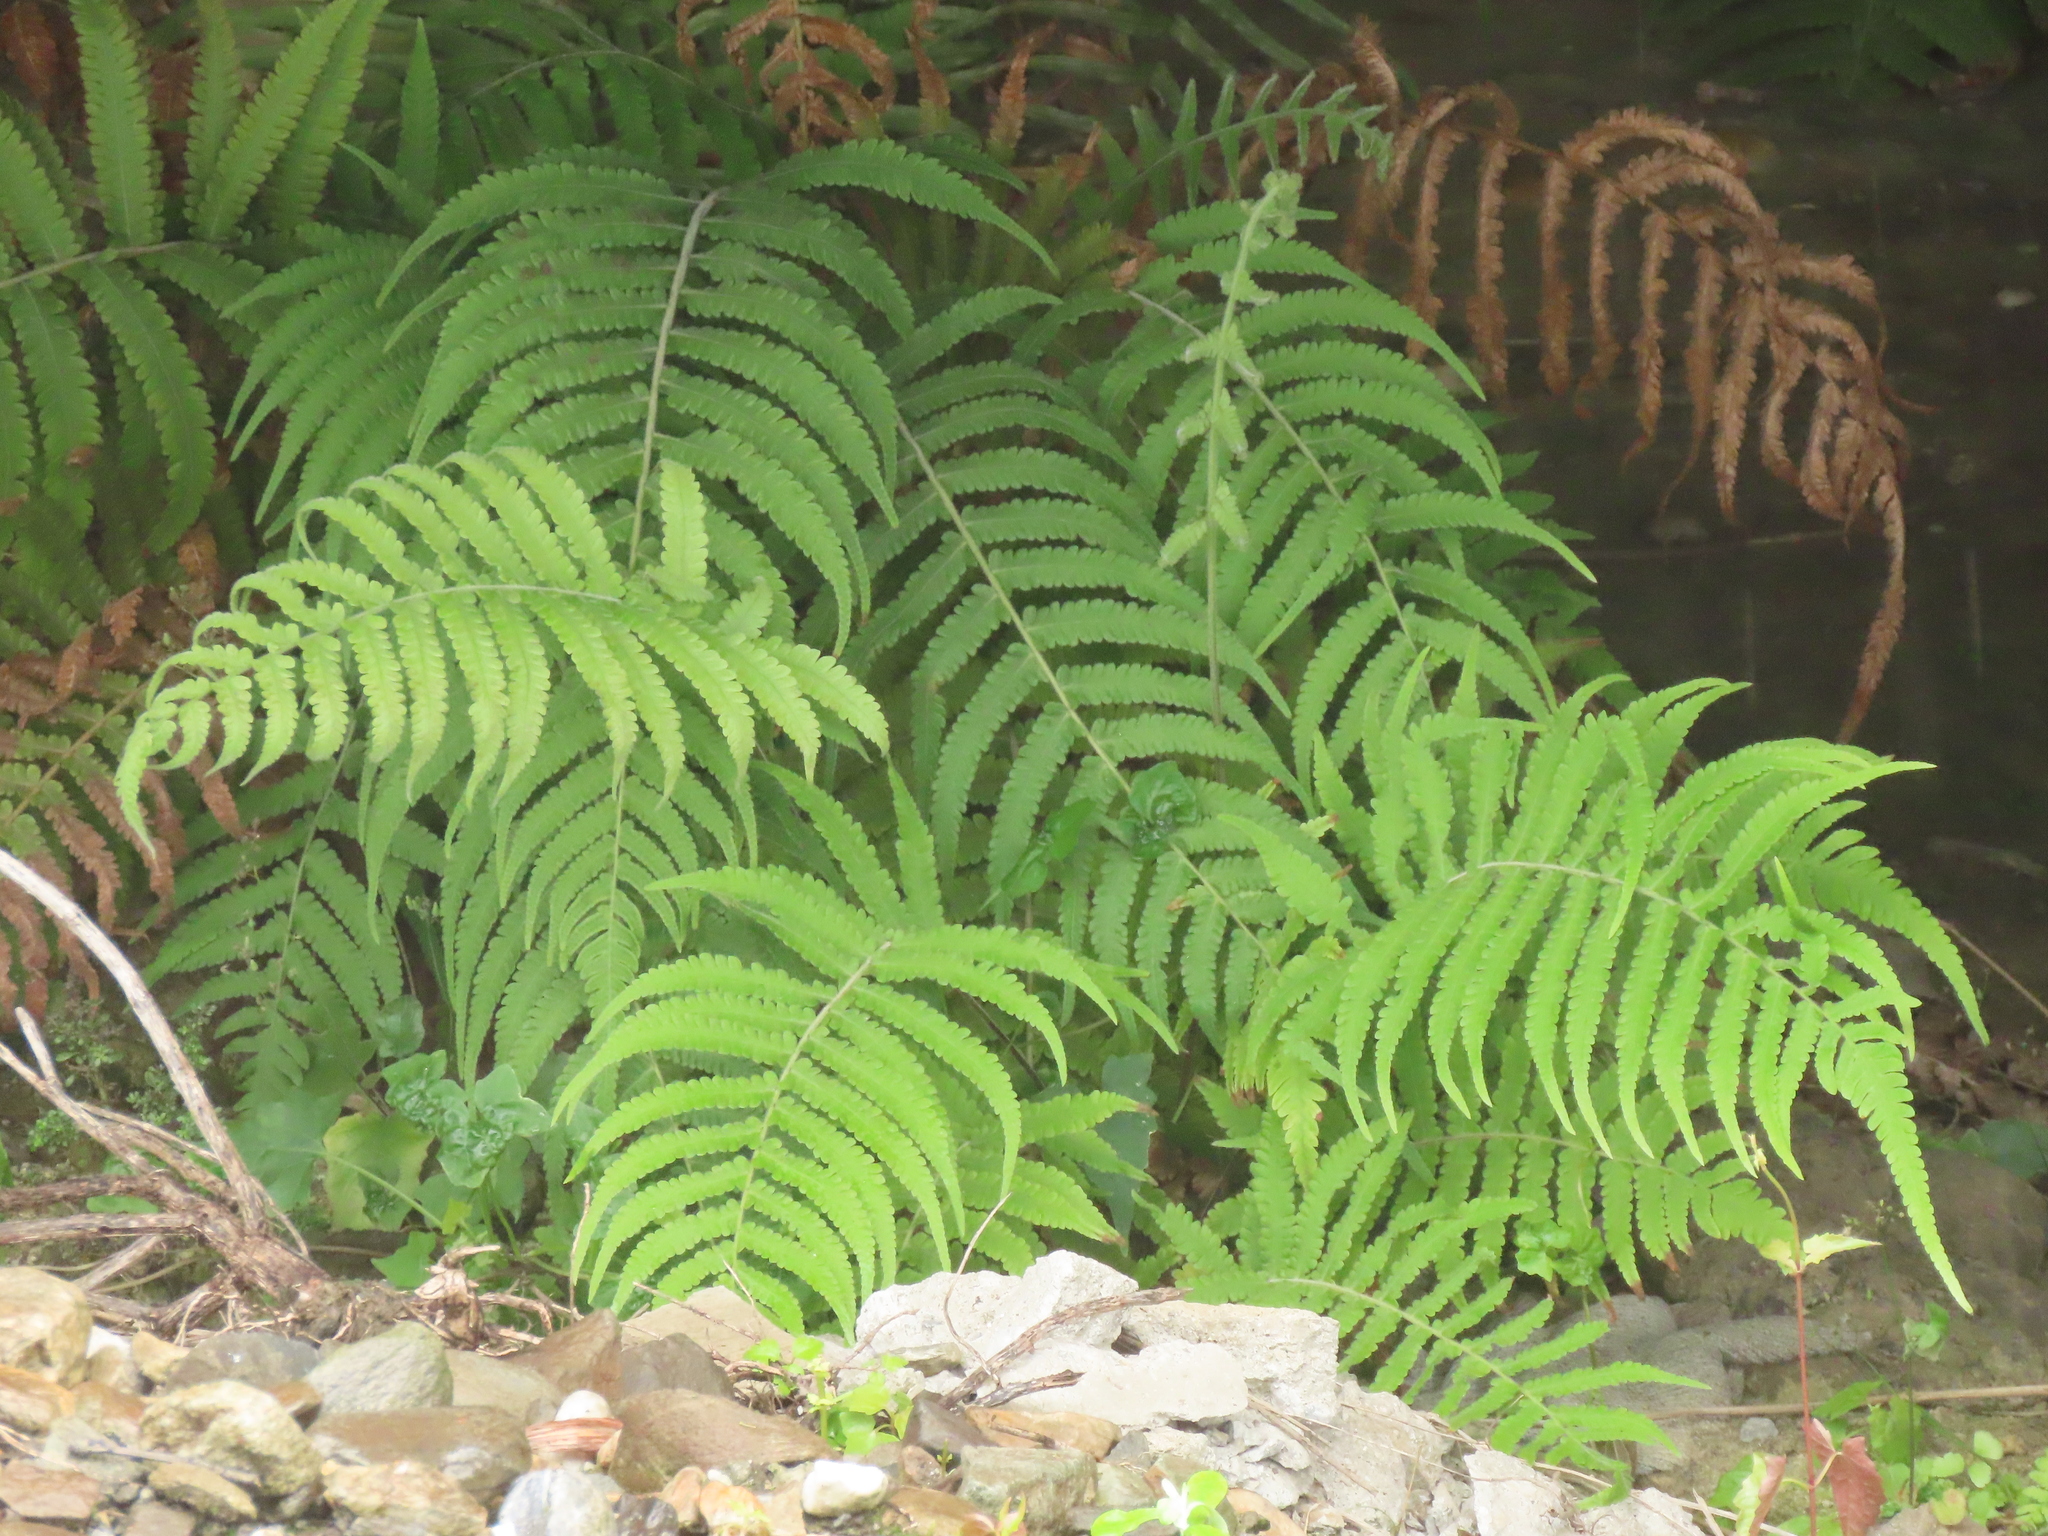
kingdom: Plantae
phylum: Tracheophyta
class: Polypodiopsida
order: Polypodiales
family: Thelypteridaceae
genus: Christella
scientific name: Christella parasitica
